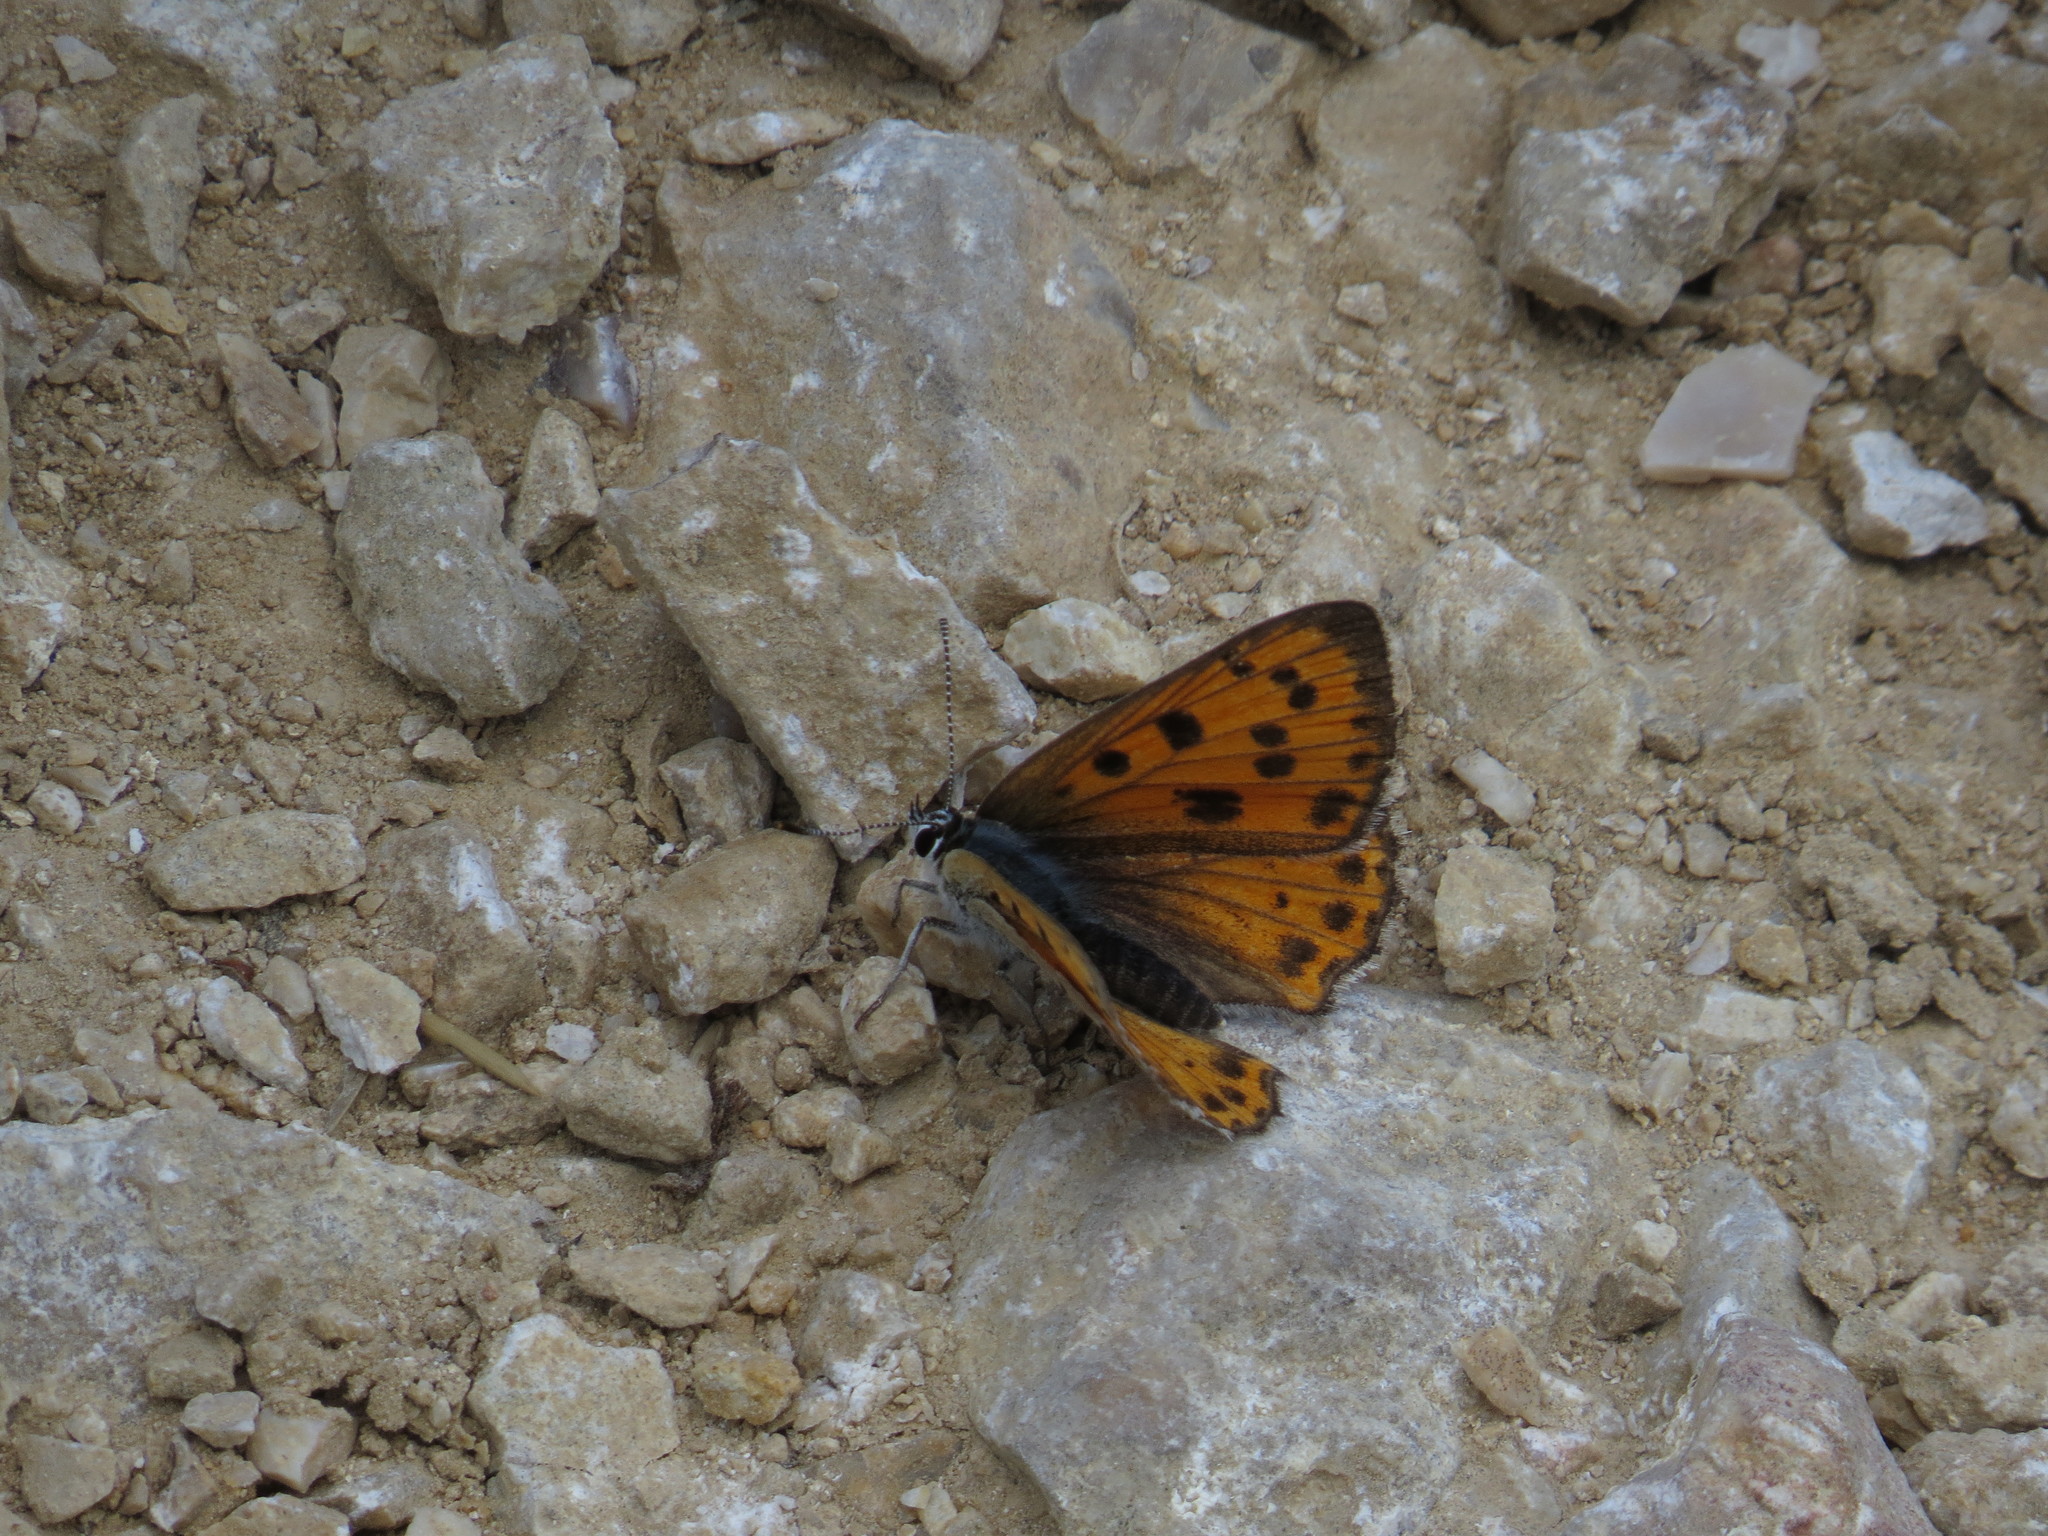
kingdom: Animalia
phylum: Arthropoda
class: Insecta
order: Lepidoptera
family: Lycaenidae
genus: Lycaena
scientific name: Lycaena alciphron
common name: Purple-shot copper
